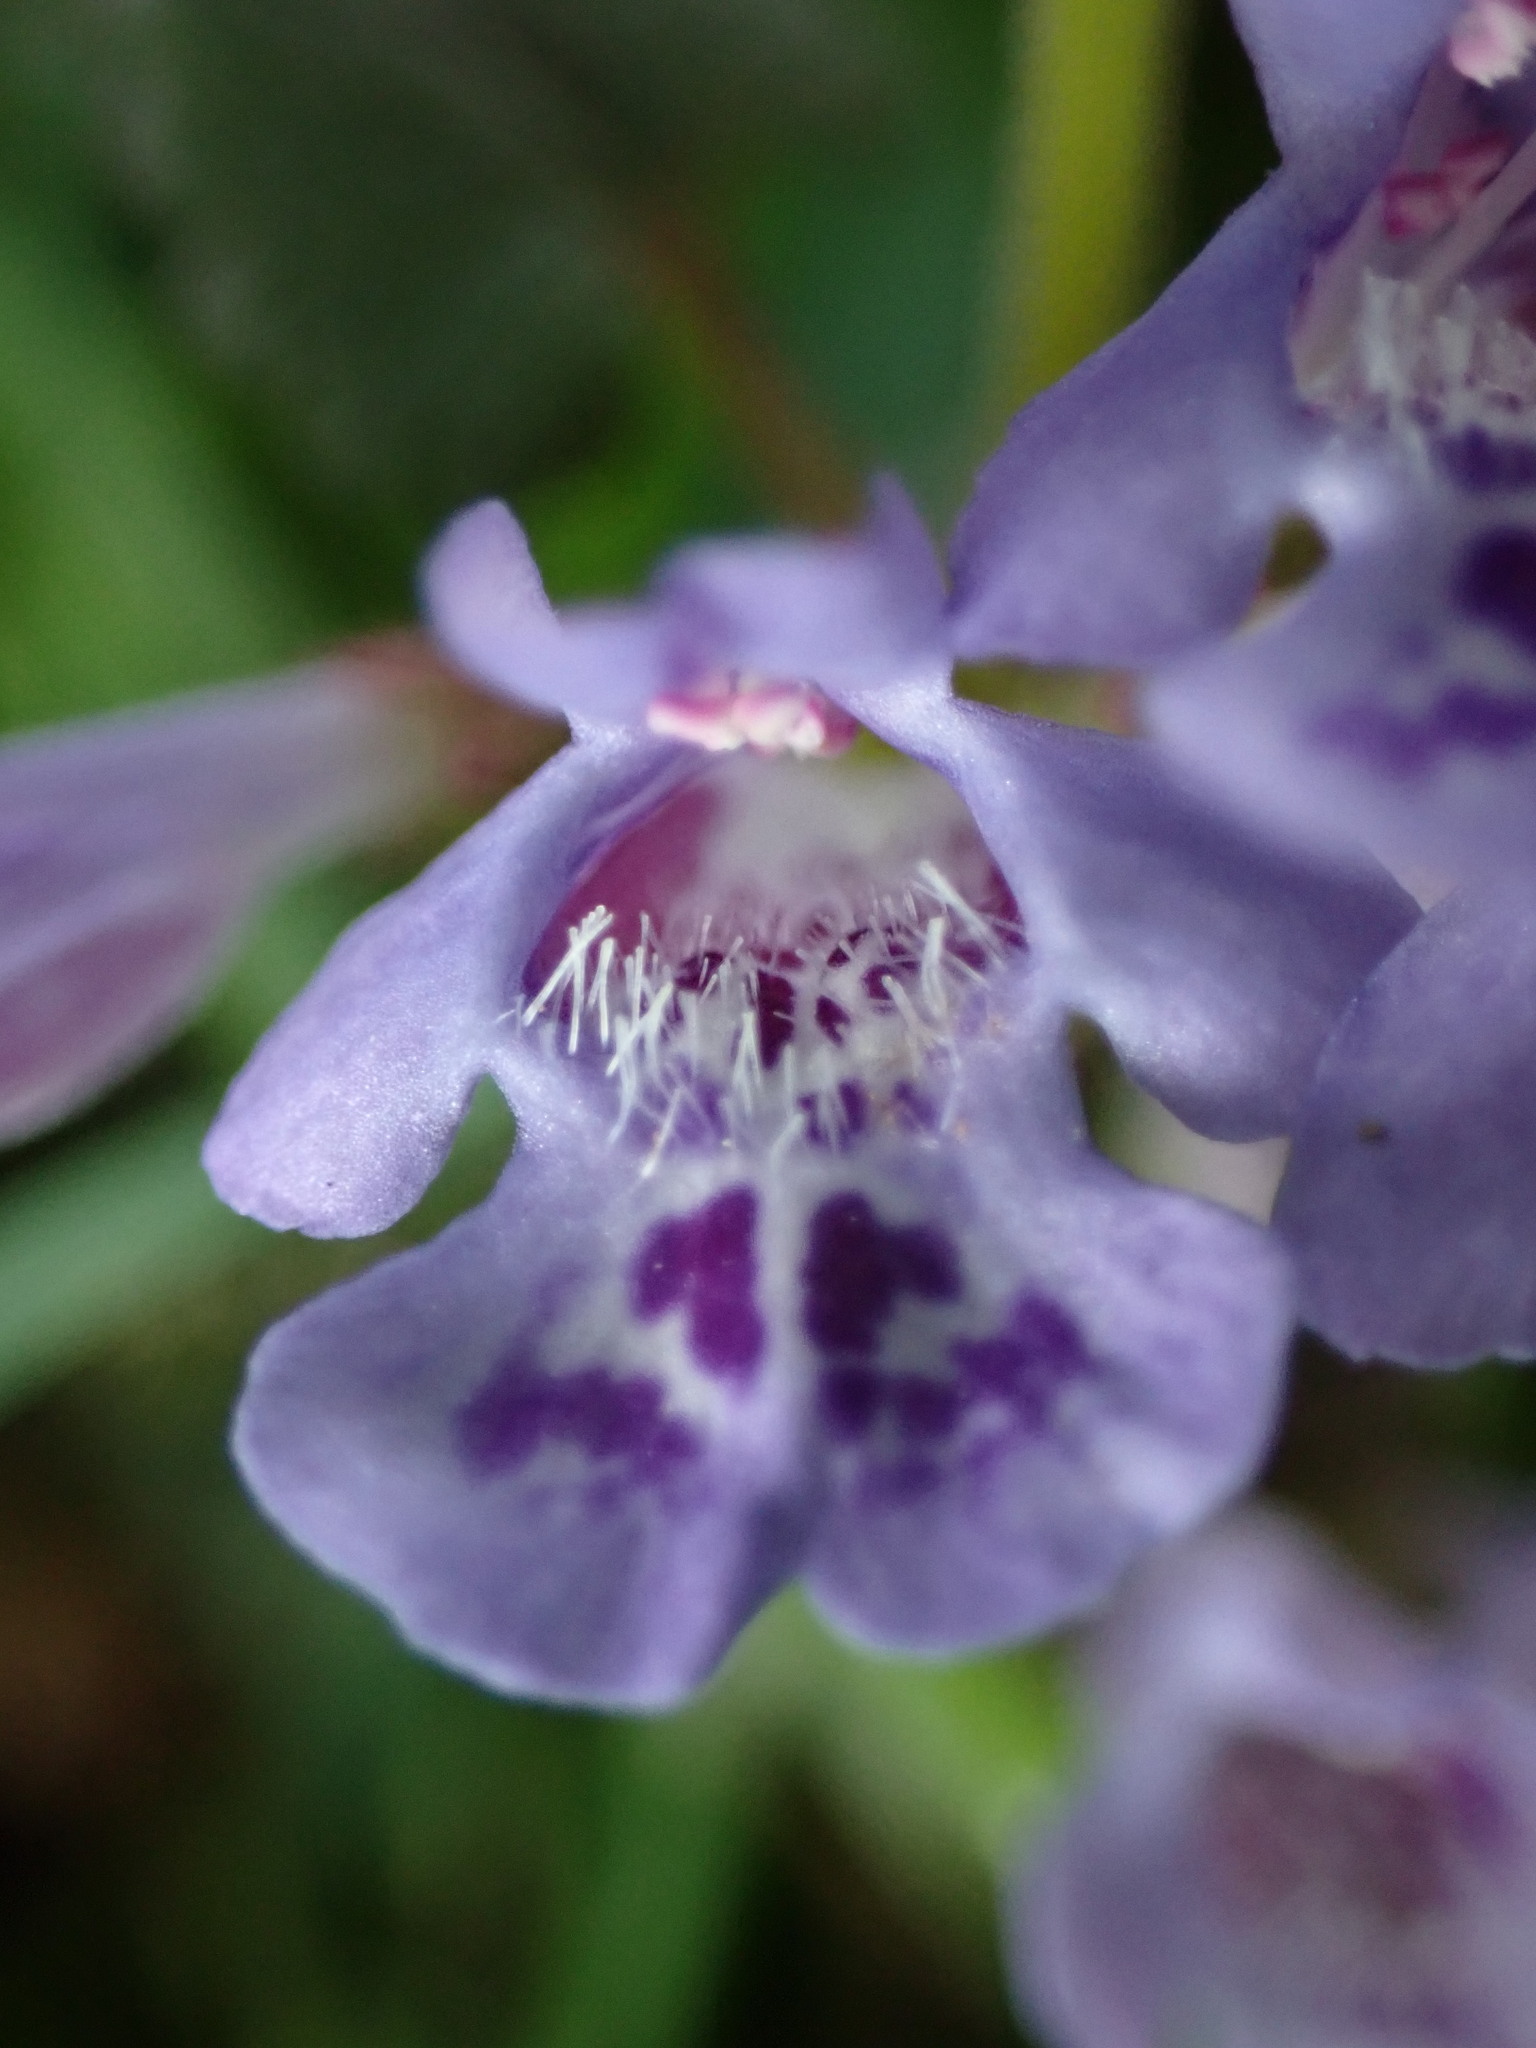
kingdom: Plantae
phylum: Tracheophyta
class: Magnoliopsida
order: Lamiales
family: Lamiaceae
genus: Glechoma
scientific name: Glechoma hederacea
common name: Ground ivy
